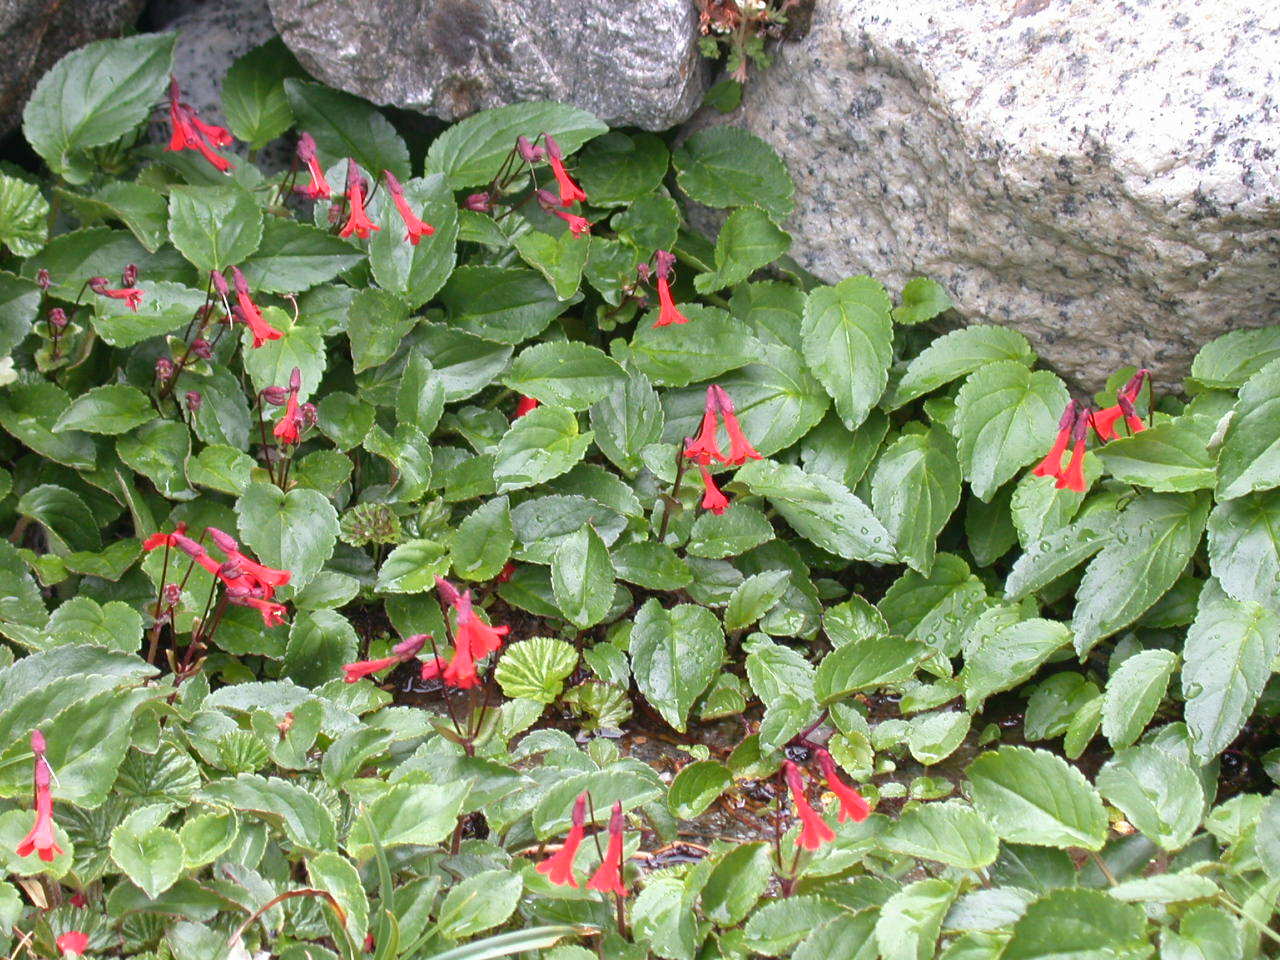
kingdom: Plantae
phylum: Tracheophyta
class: Magnoliopsida
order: Lamiales
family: Plantaginaceae
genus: Ourisia
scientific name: Ourisia ruellioides
